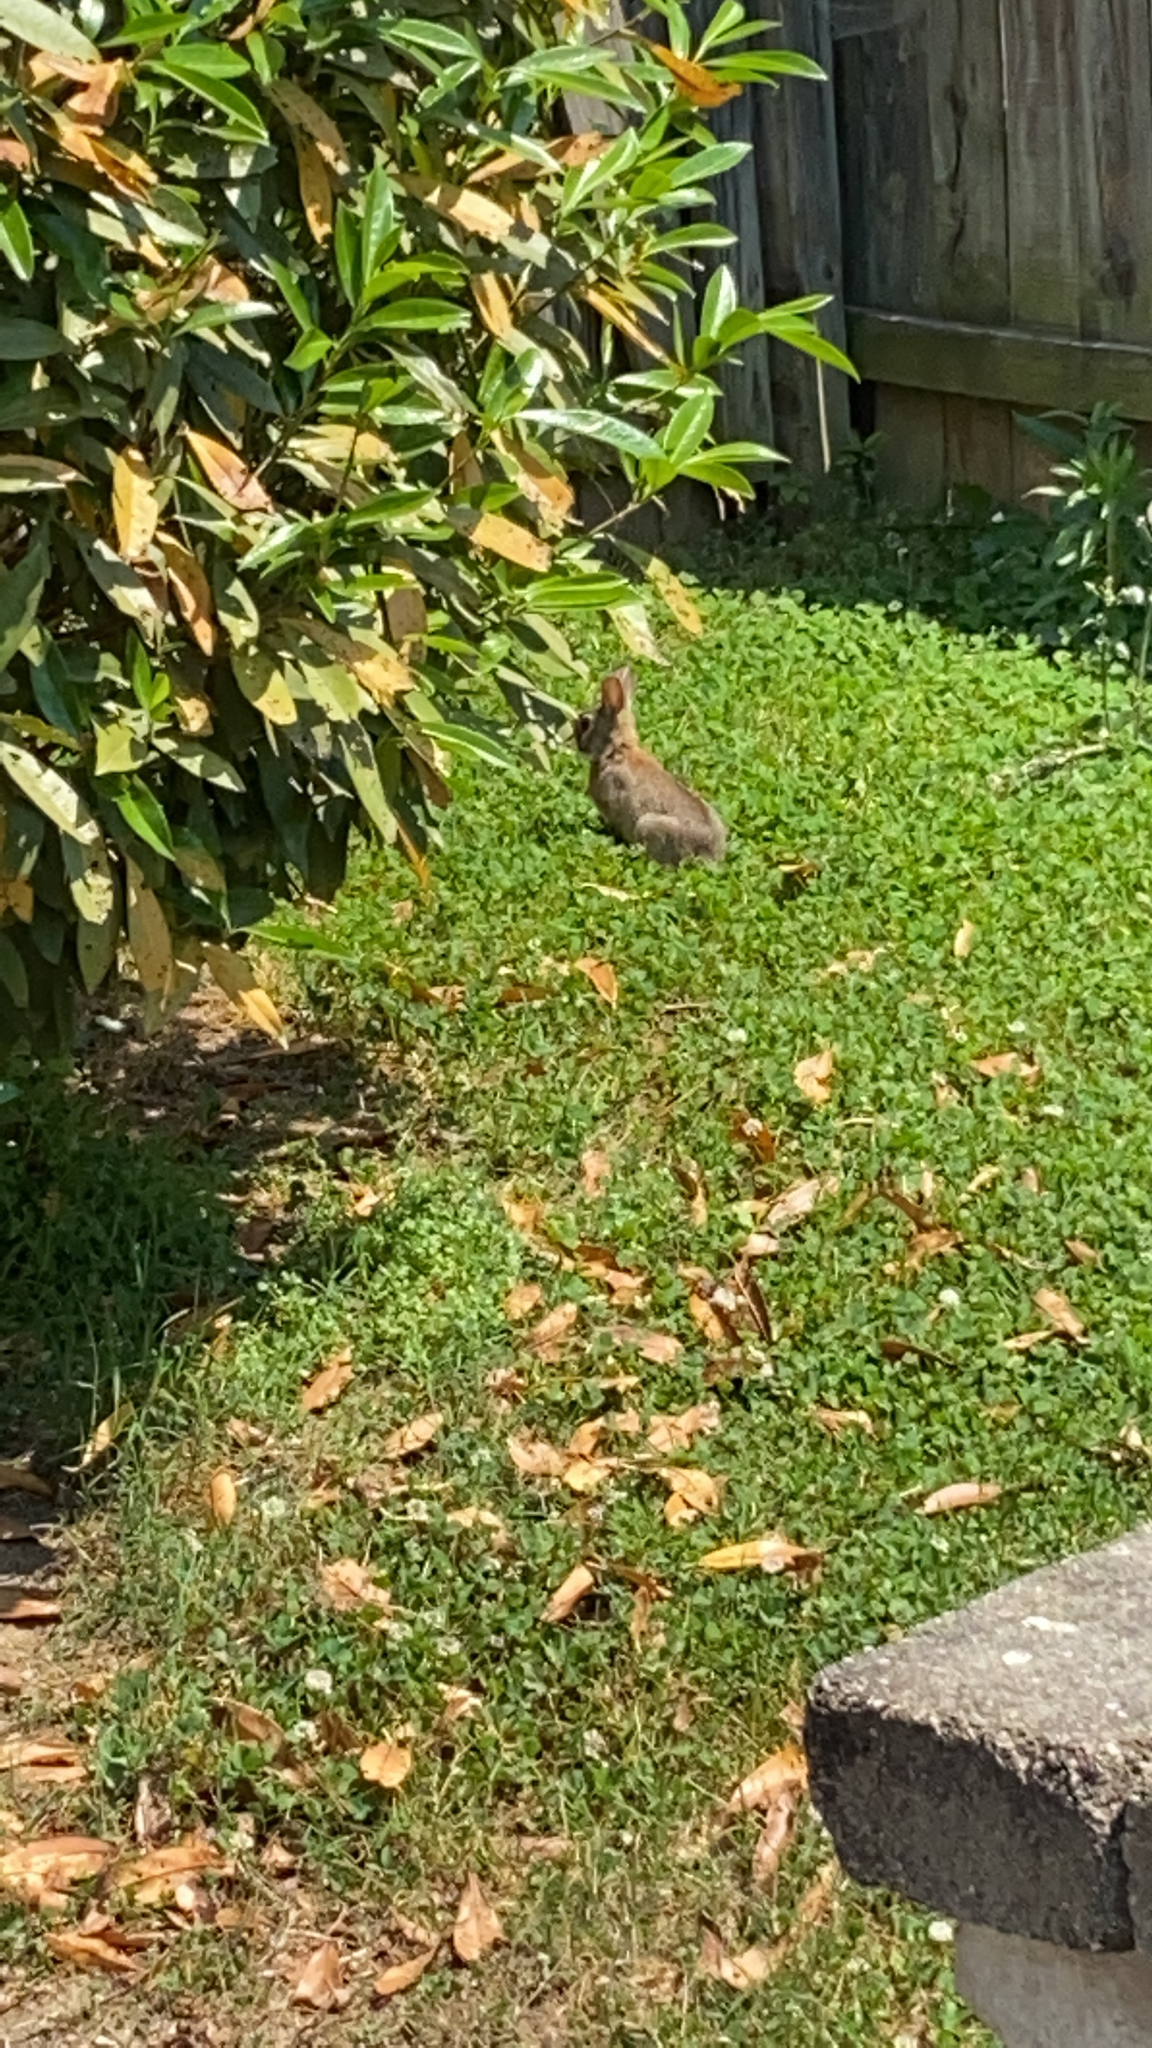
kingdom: Animalia
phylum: Chordata
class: Mammalia
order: Lagomorpha
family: Leporidae
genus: Sylvilagus
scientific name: Sylvilagus floridanus
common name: Eastern cottontail
